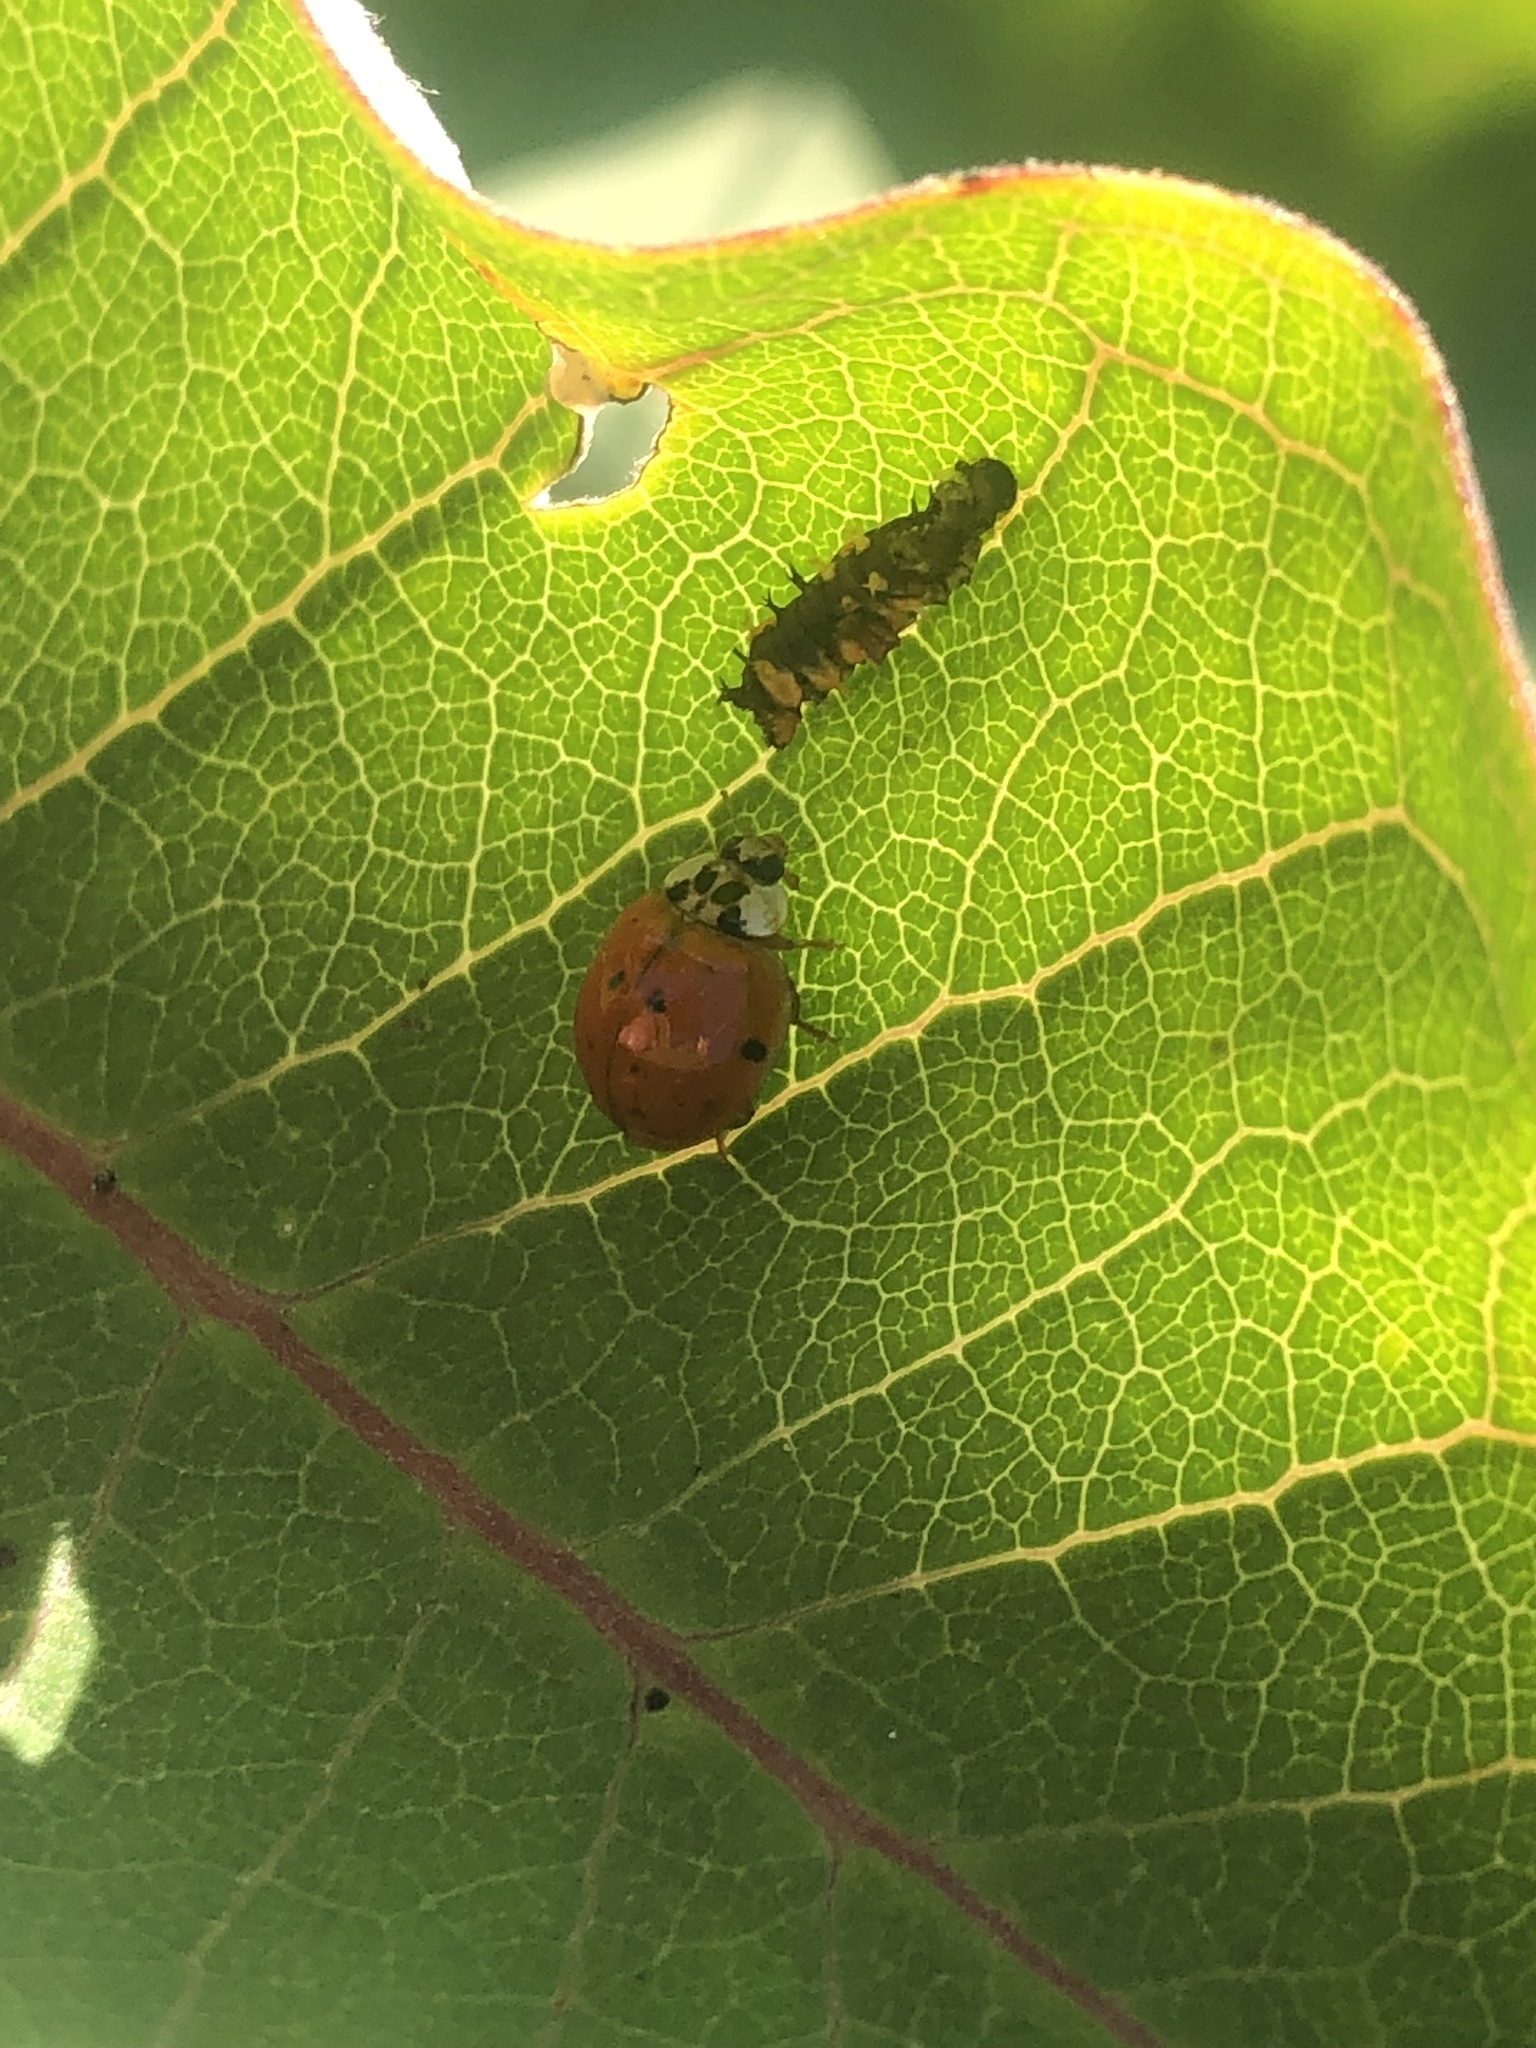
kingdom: Animalia
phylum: Arthropoda
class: Insecta
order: Coleoptera
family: Coccinellidae
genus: Harmonia
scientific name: Harmonia axyridis
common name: Harlequin ladybird
